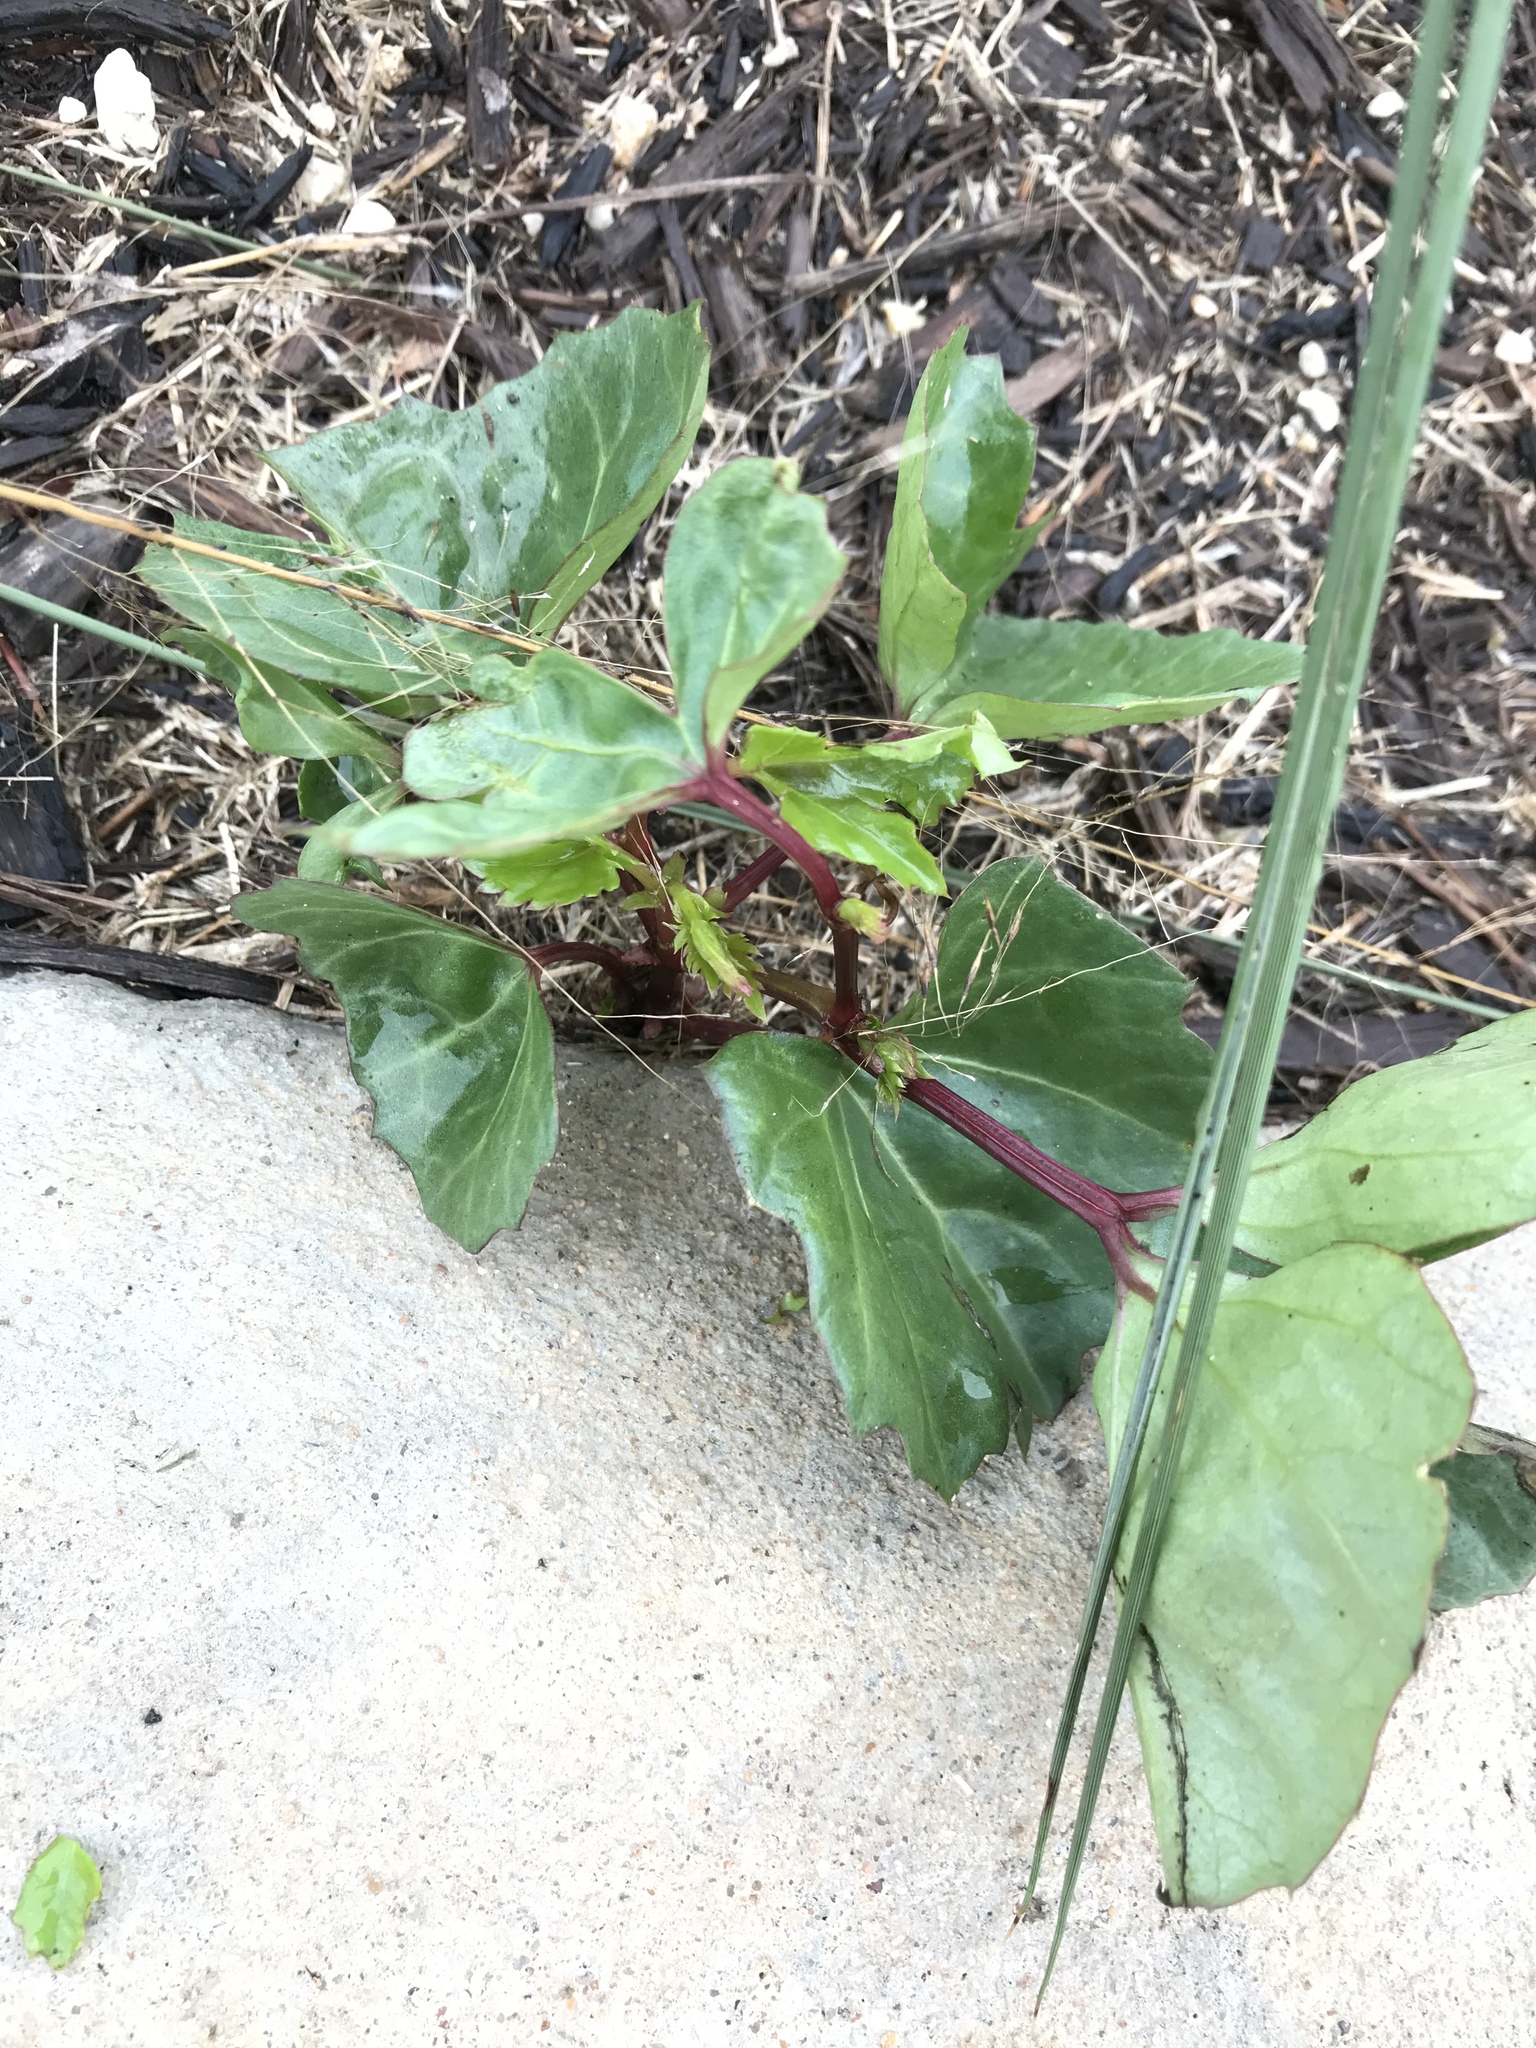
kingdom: Plantae
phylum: Tracheophyta
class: Magnoliopsida
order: Vitales
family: Vitaceae
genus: Cissus
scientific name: Cissus trifoliata
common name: Vine-sorrel
